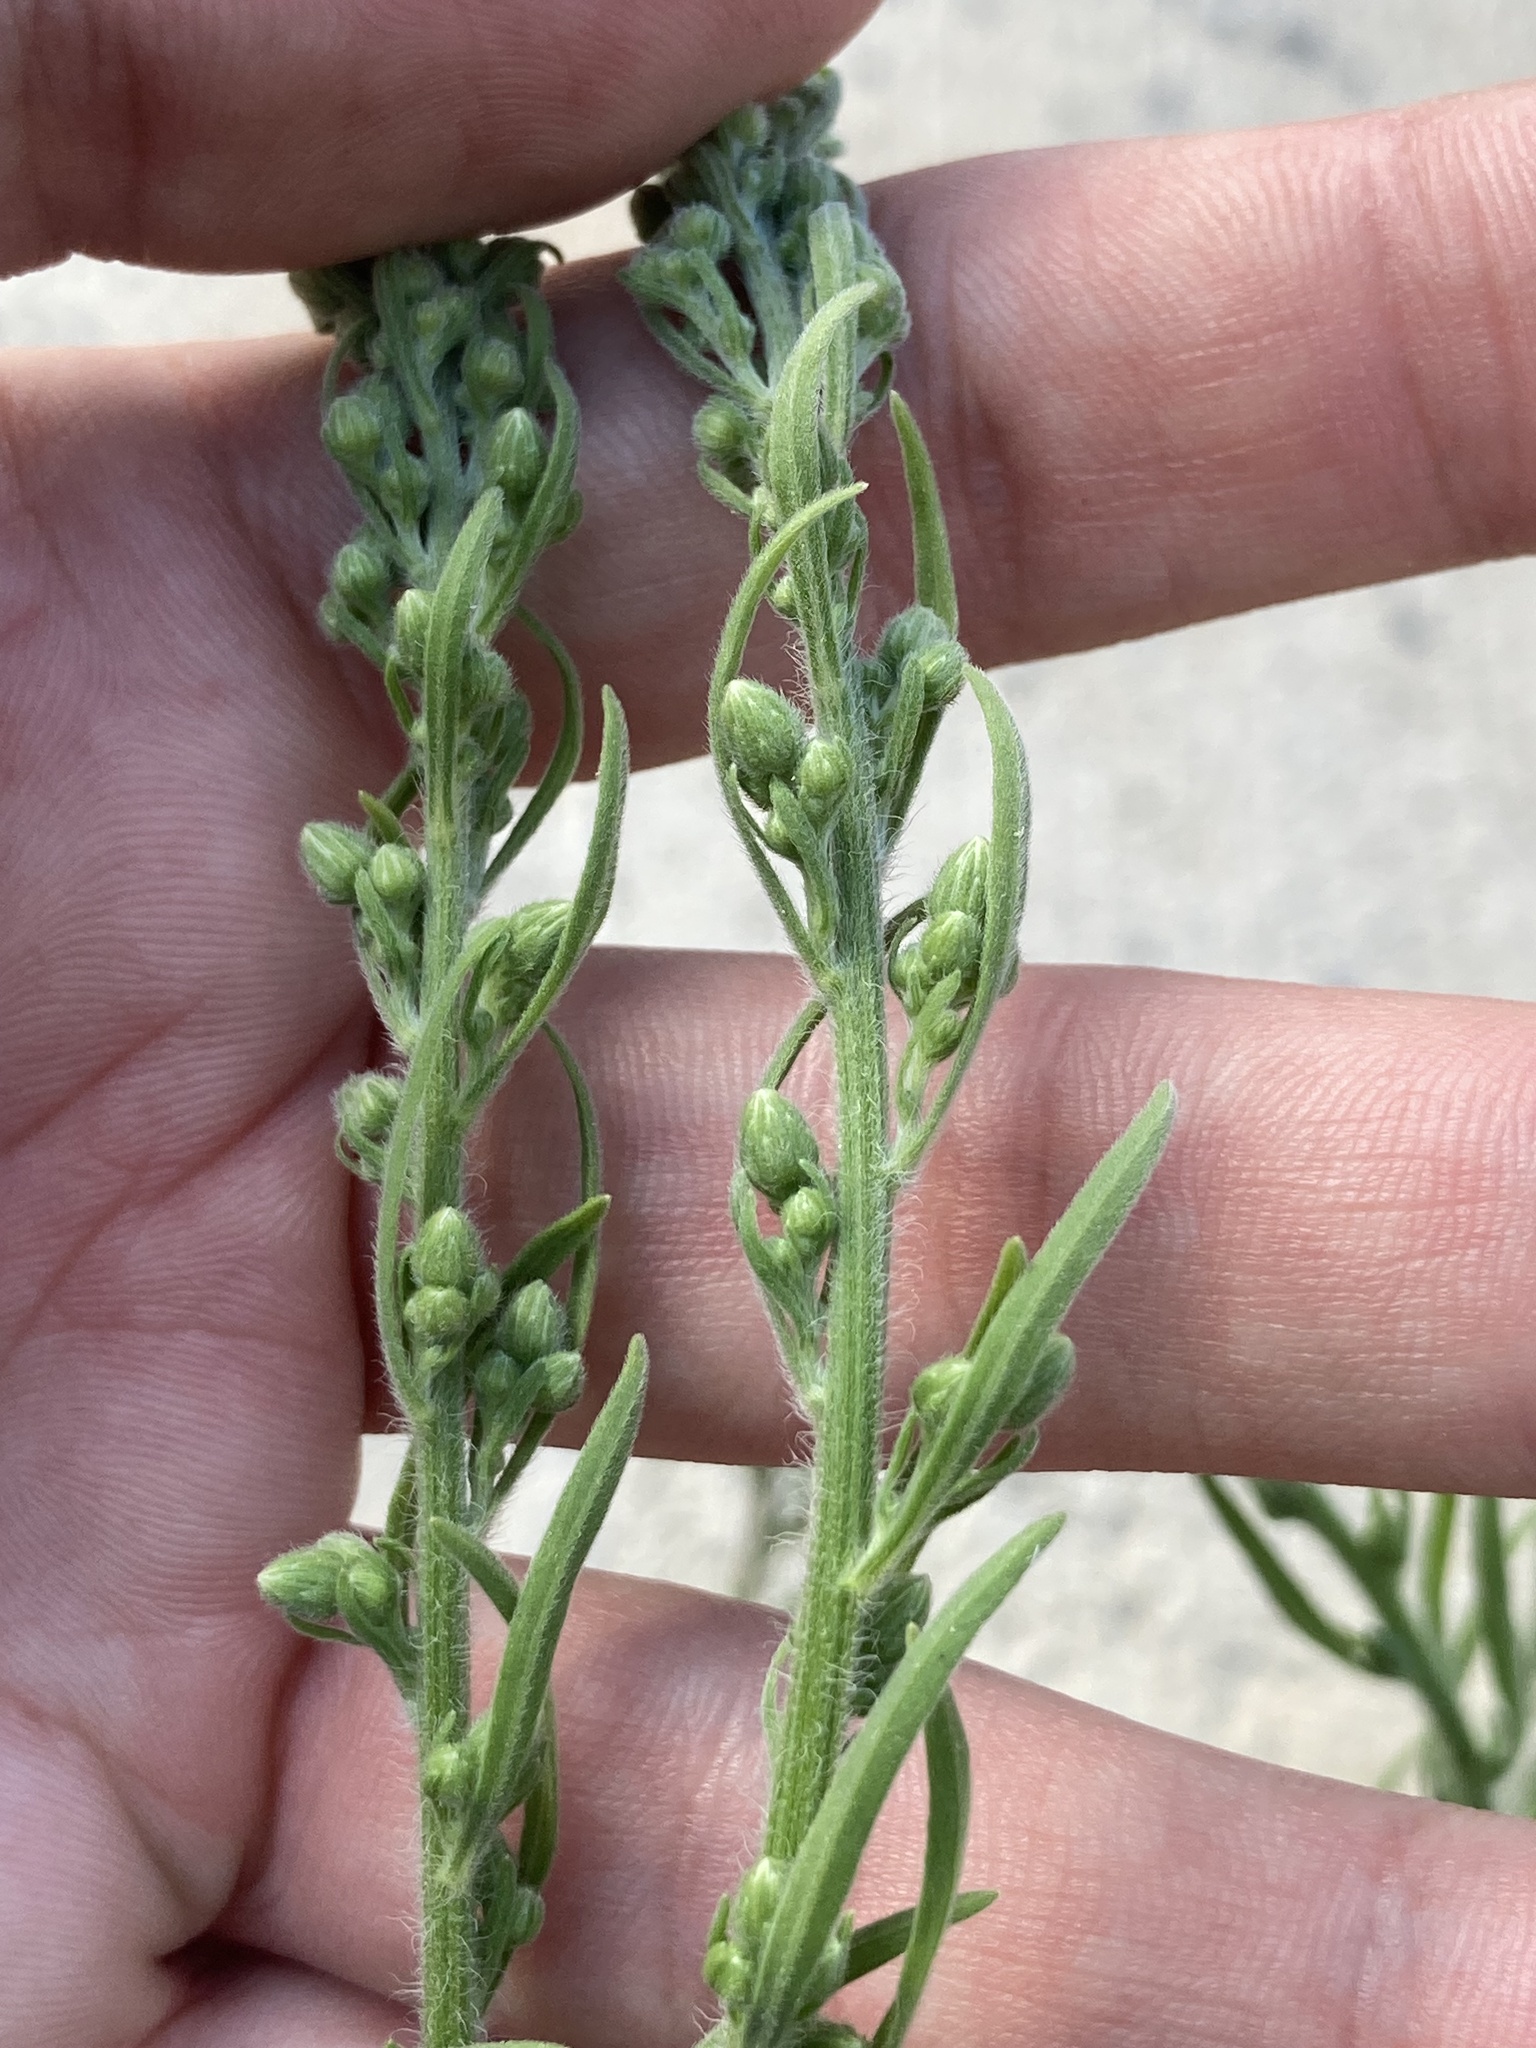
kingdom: Plantae
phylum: Tracheophyta
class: Magnoliopsida
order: Asterales
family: Asteraceae
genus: Erigeron
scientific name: Erigeron canadensis
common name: Canadian fleabane
